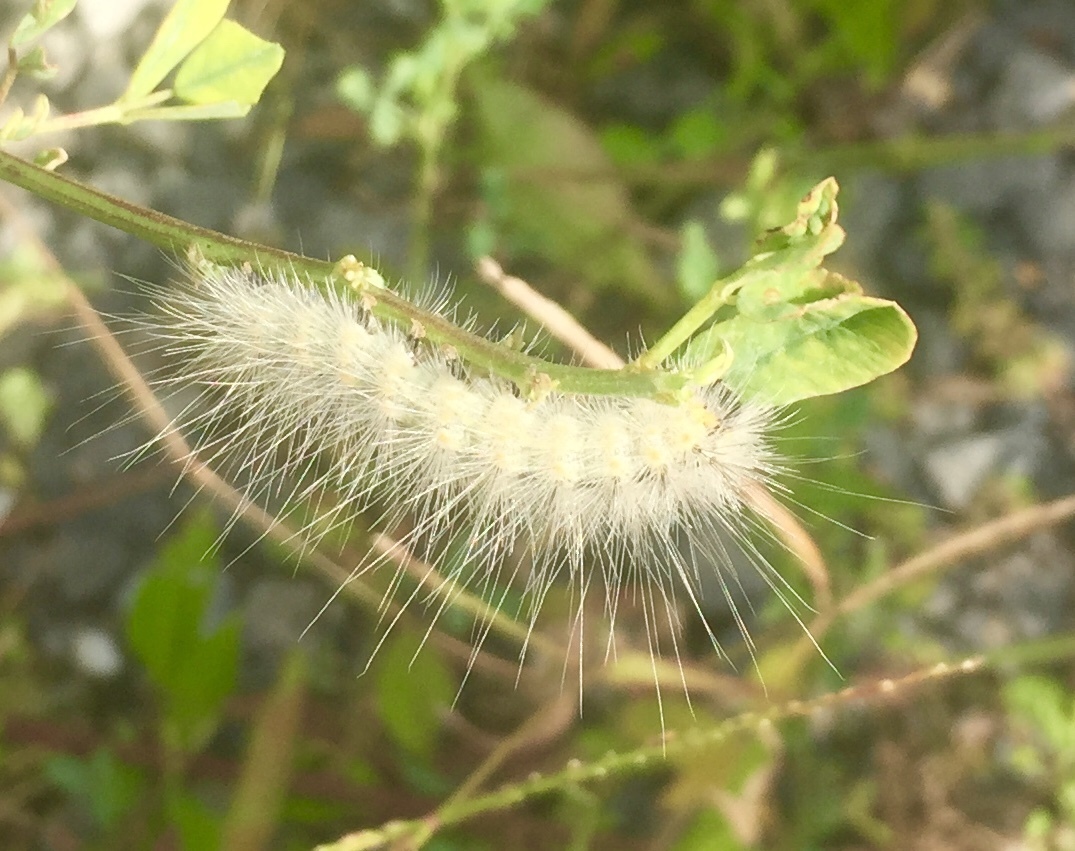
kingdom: Animalia
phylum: Arthropoda
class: Insecta
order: Lepidoptera
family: Erebidae
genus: Hyphantria
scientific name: Hyphantria cunea
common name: American white moth
